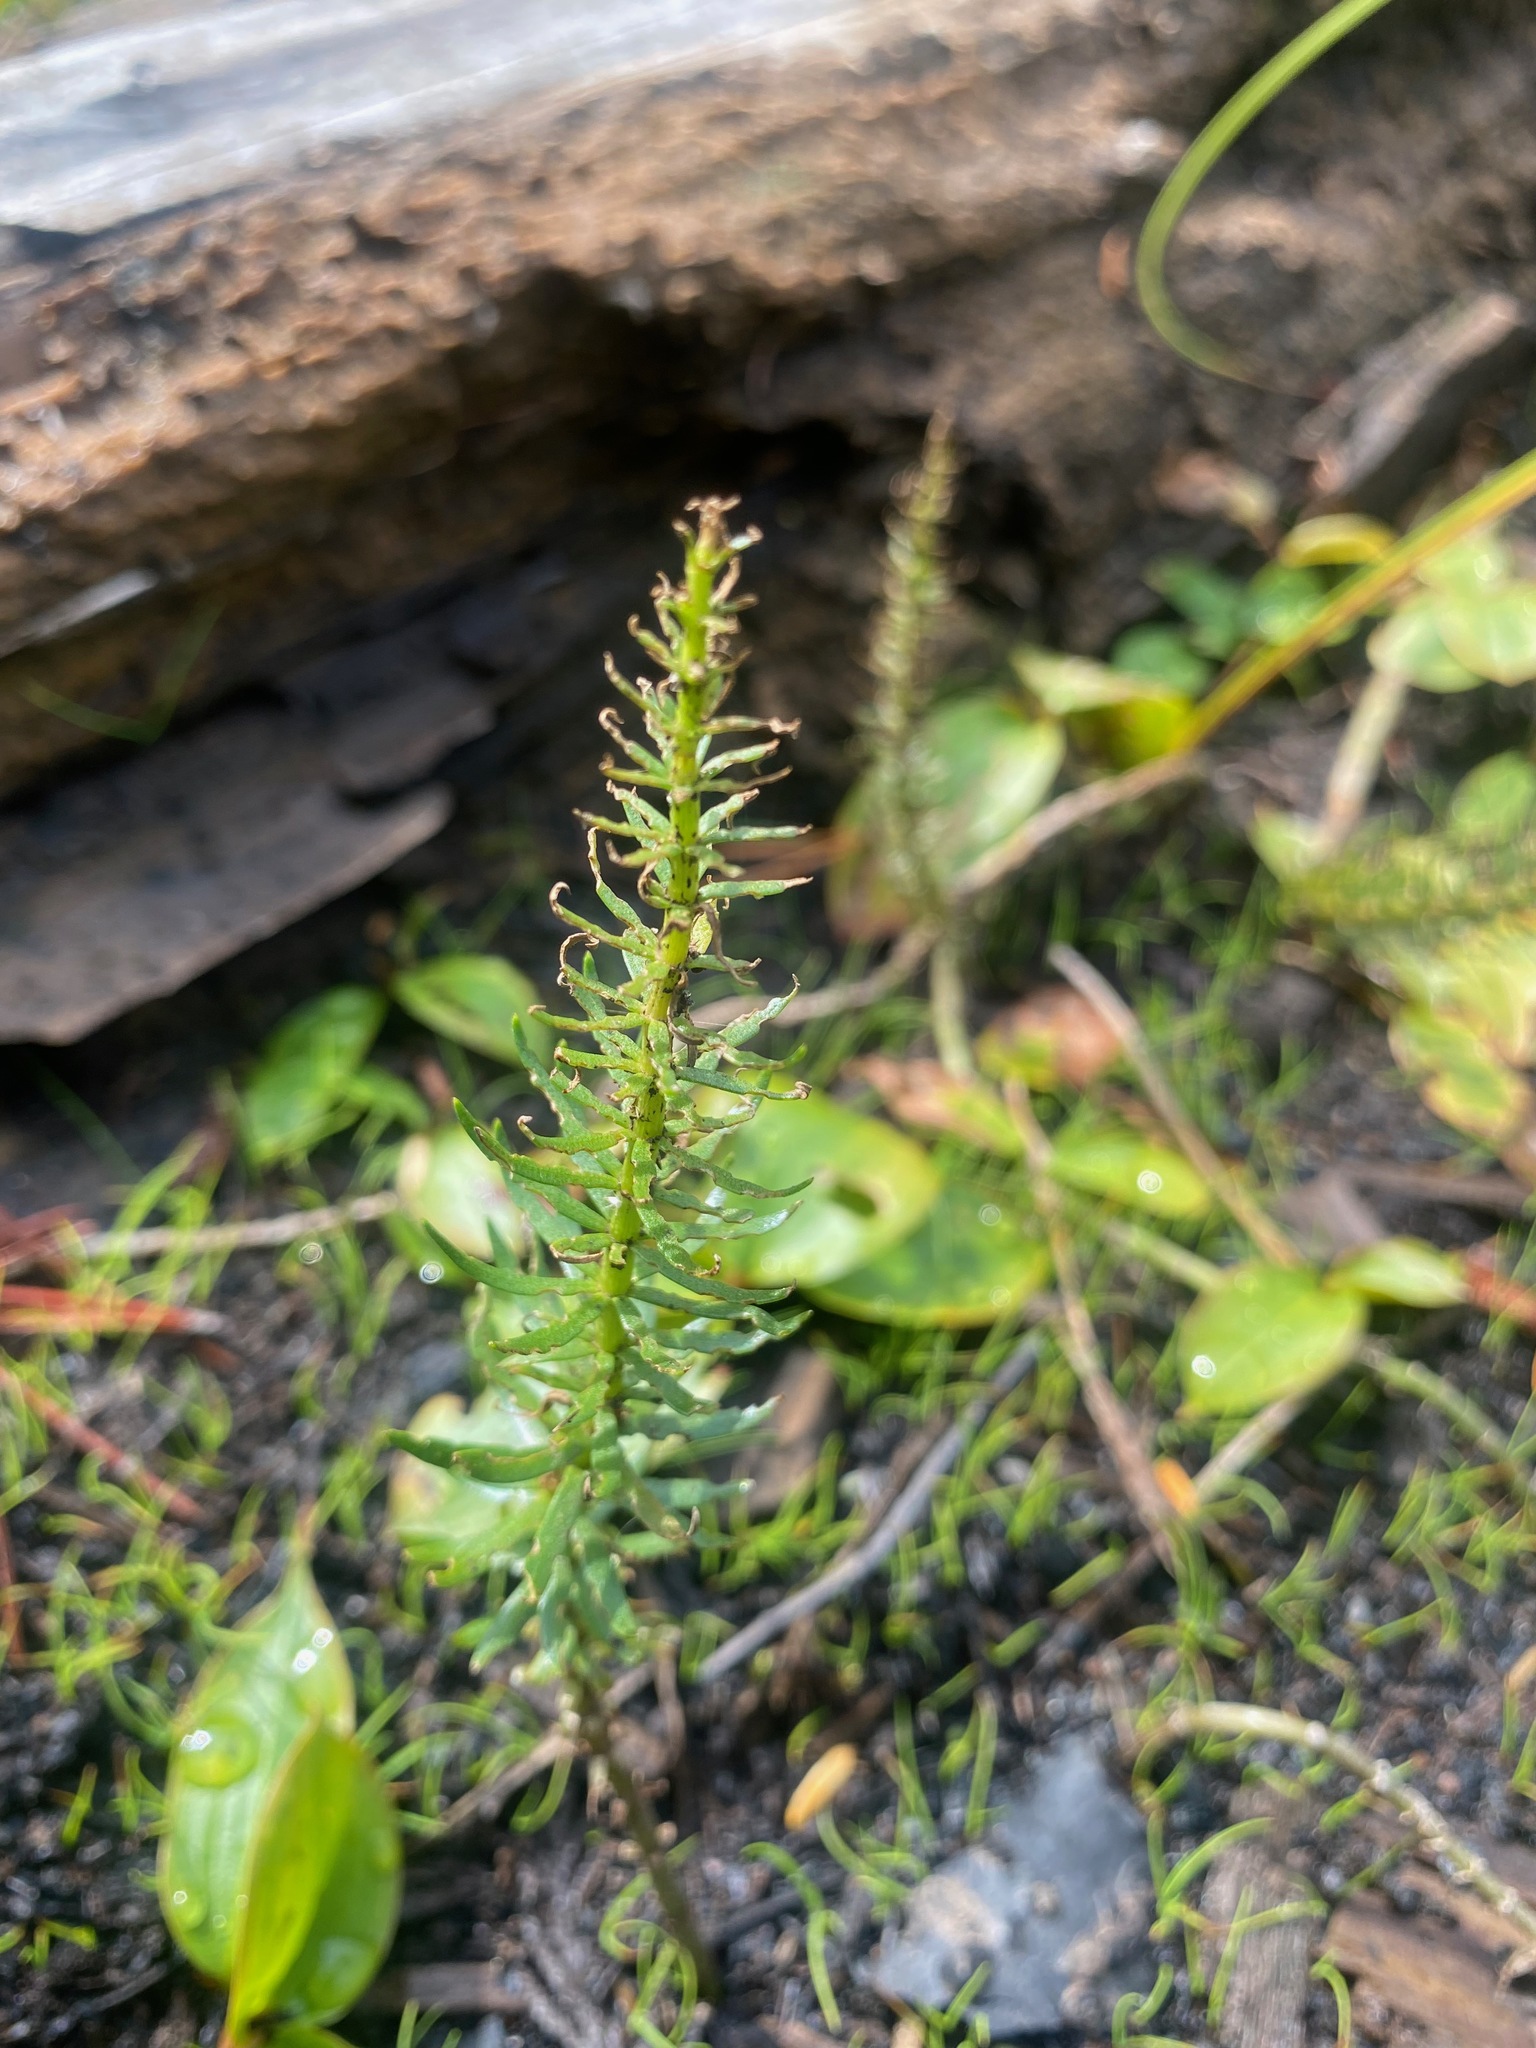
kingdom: Plantae
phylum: Tracheophyta
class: Magnoliopsida
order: Lamiales
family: Plantaginaceae
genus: Hippuris
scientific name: Hippuris vulgaris
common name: Mare's-tail
